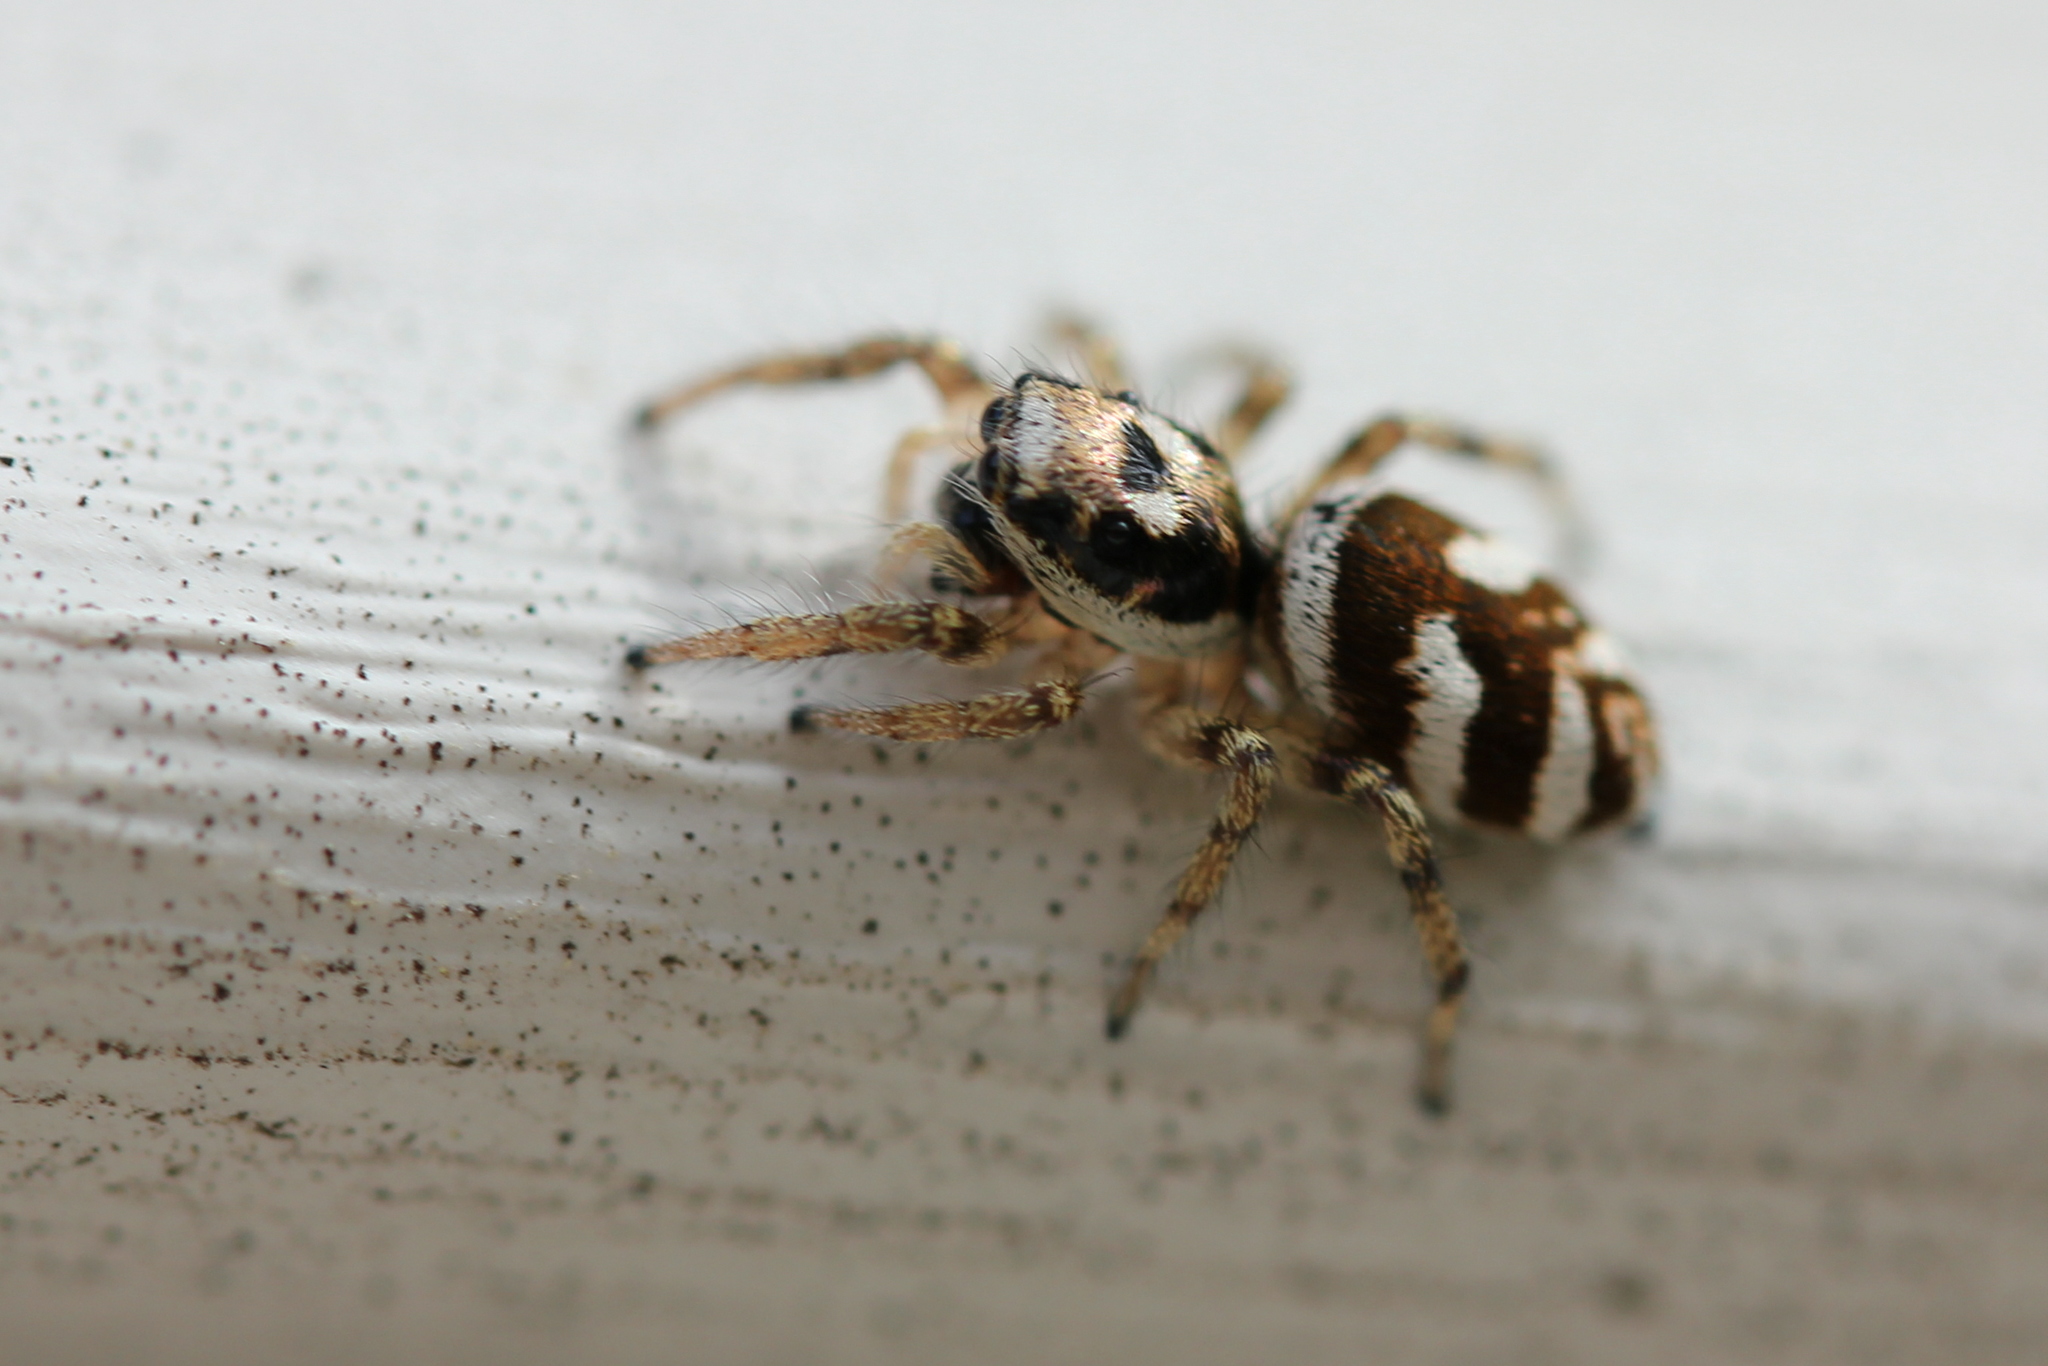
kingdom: Animalia
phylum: Arthropoda
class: Arachnida
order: Araneae
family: Salticidae
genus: Salticus
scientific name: Salticus scenicus
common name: Zebra jumper
